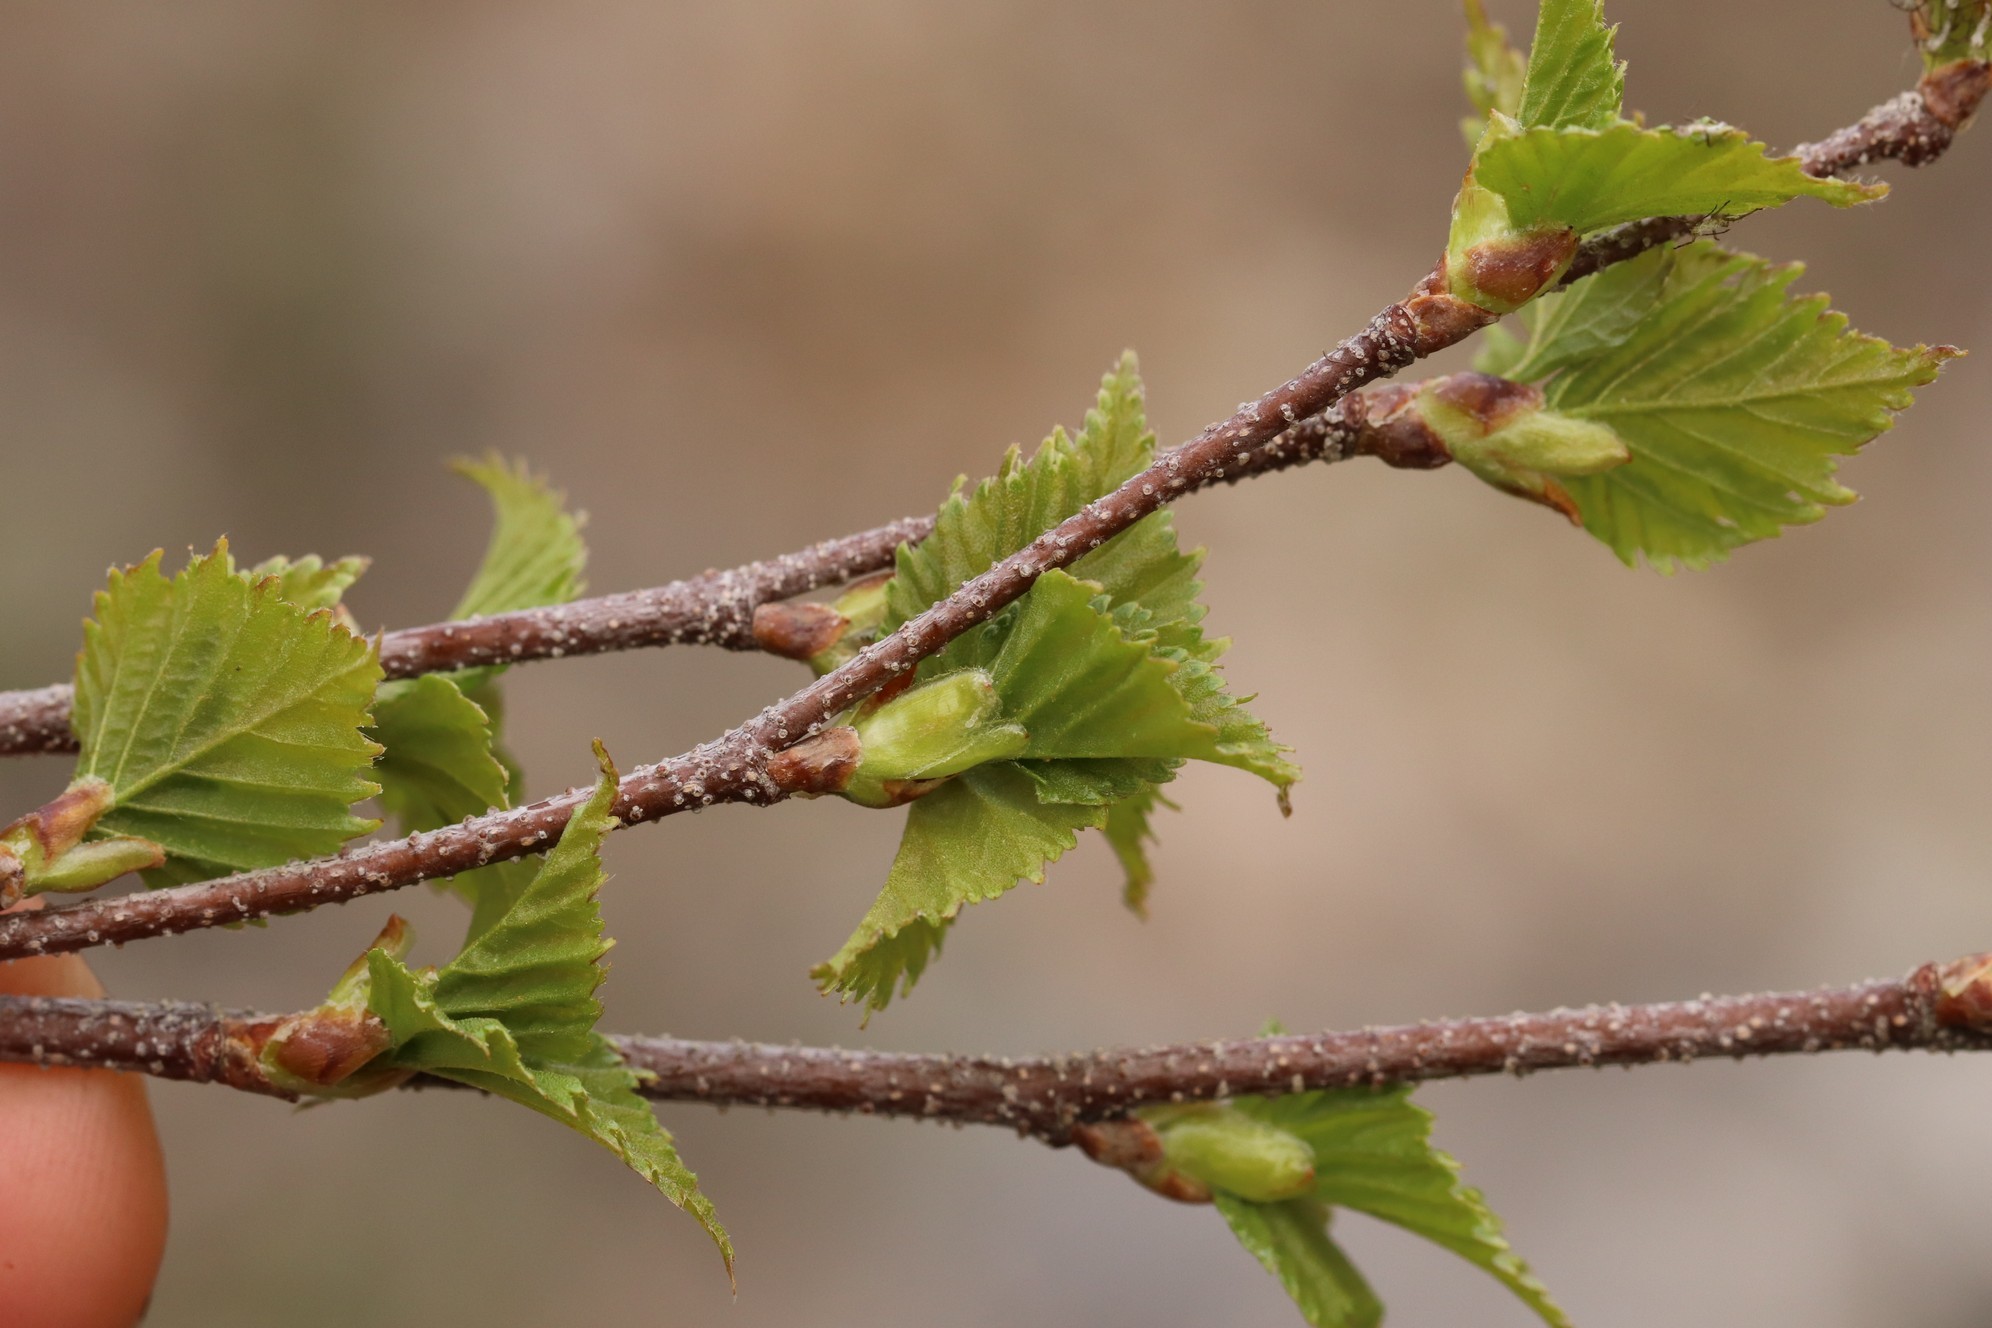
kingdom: Plantae
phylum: Tracheophyta
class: Magnoliopsida
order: Fagales
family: Betulaceae
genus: Betula
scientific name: Betula pendula
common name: Silver birch
